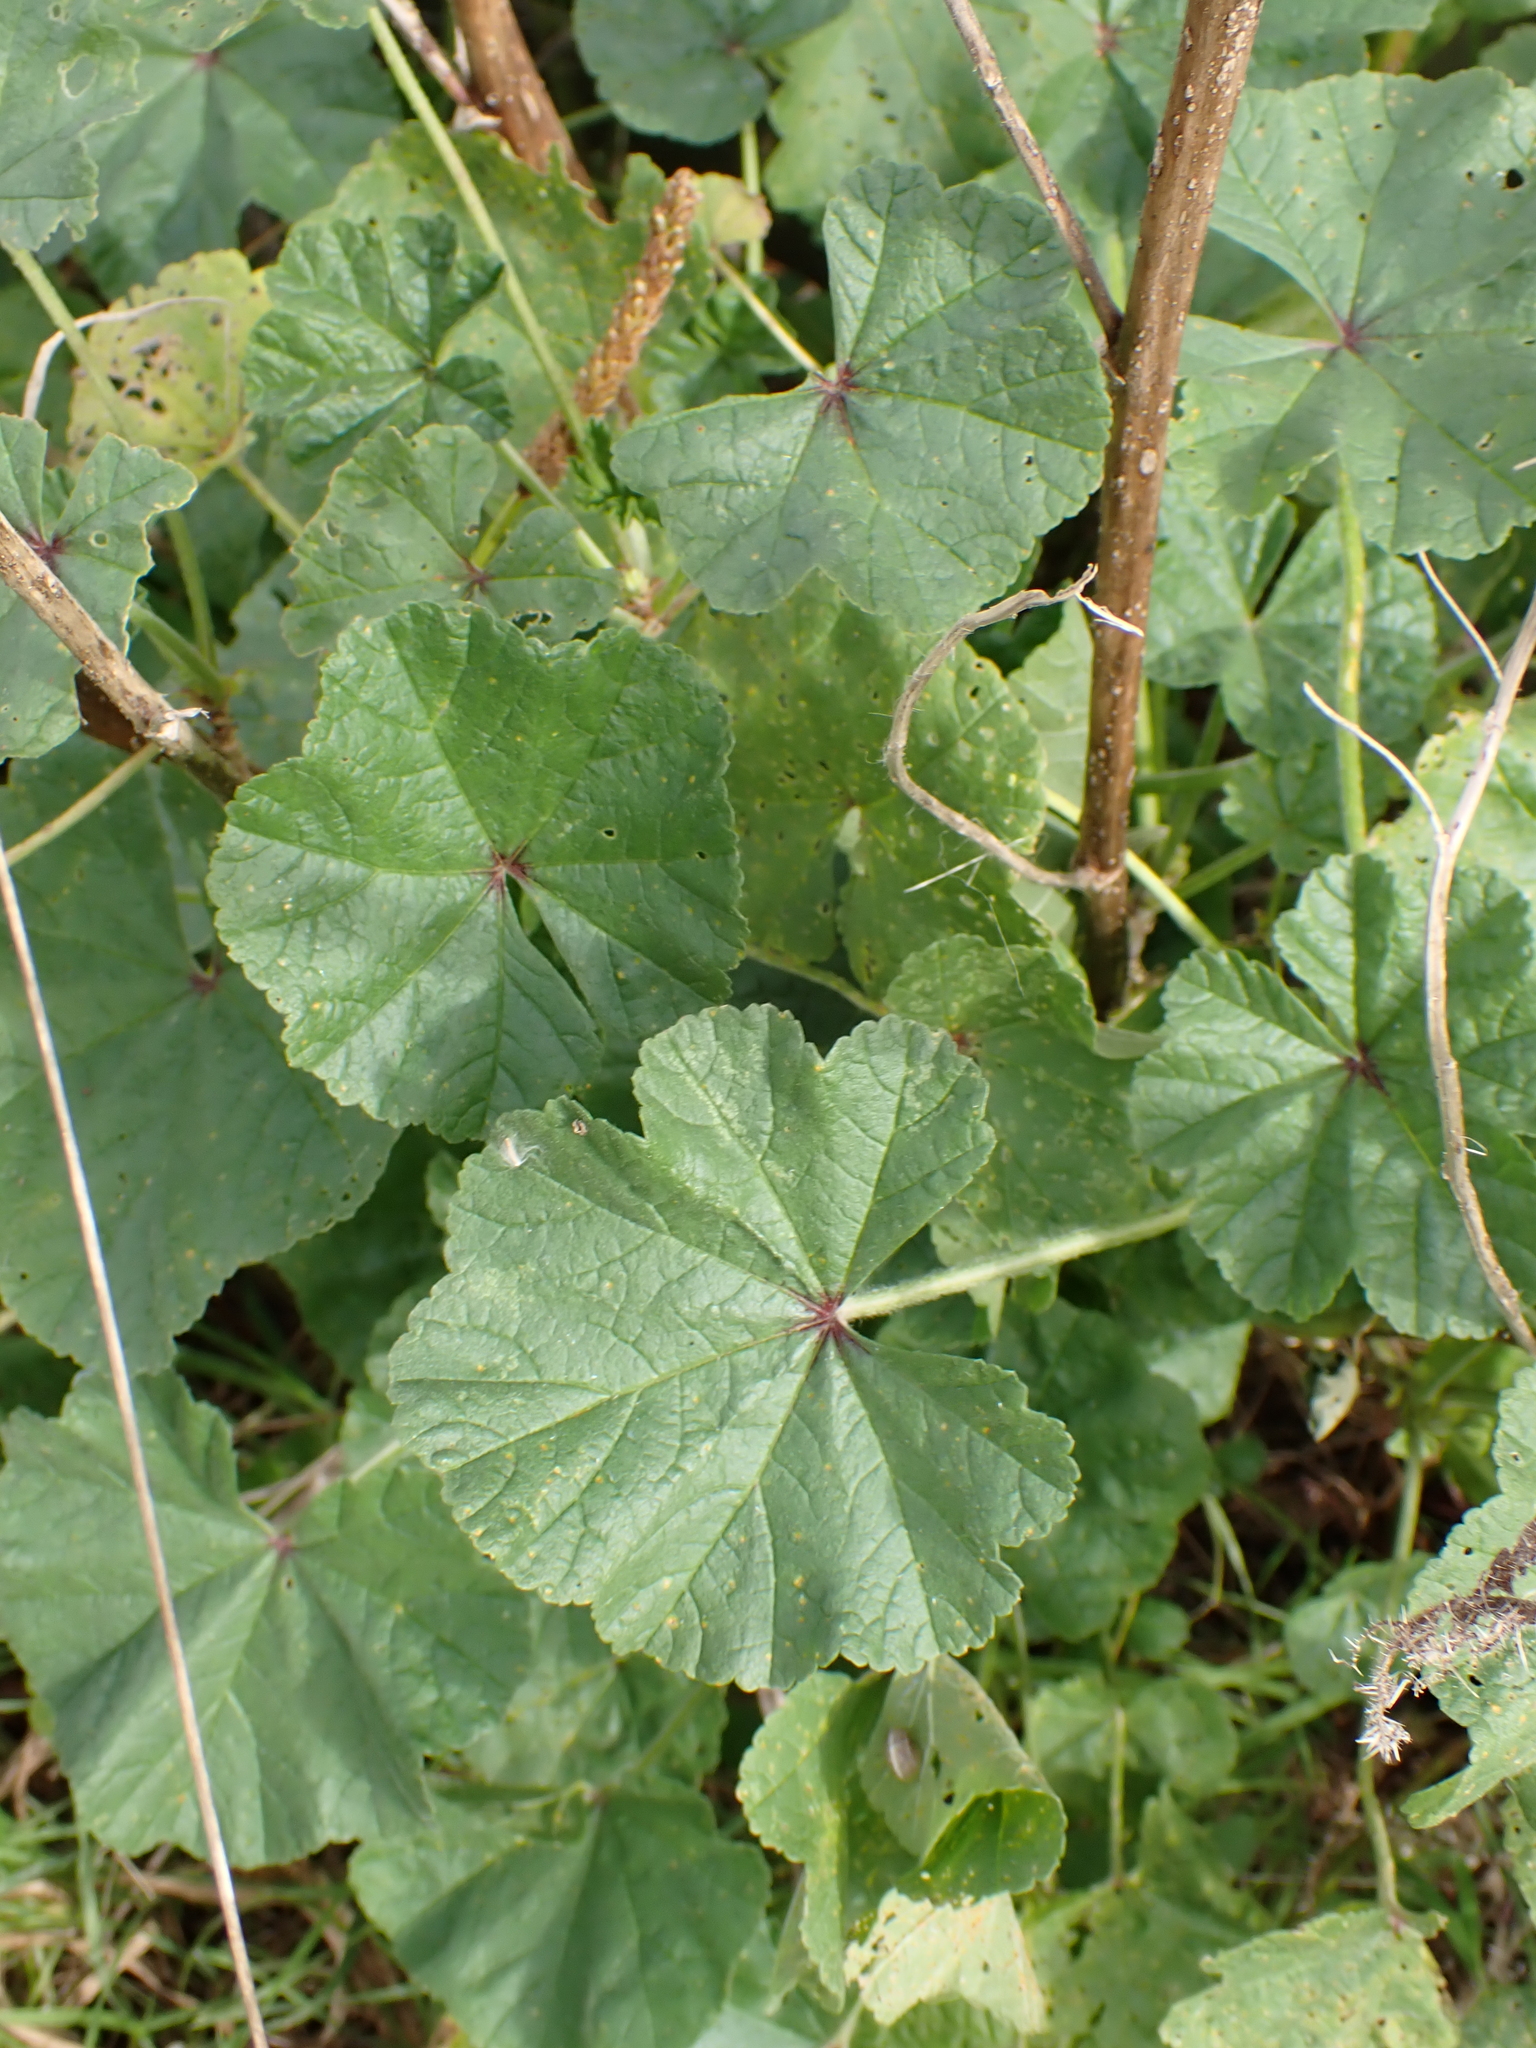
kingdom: Plantae
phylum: Tracheophyta
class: Magnoliopsida
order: Malvales
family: Malvaceae
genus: Malva
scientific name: Malva sylvestris
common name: Common mallow
